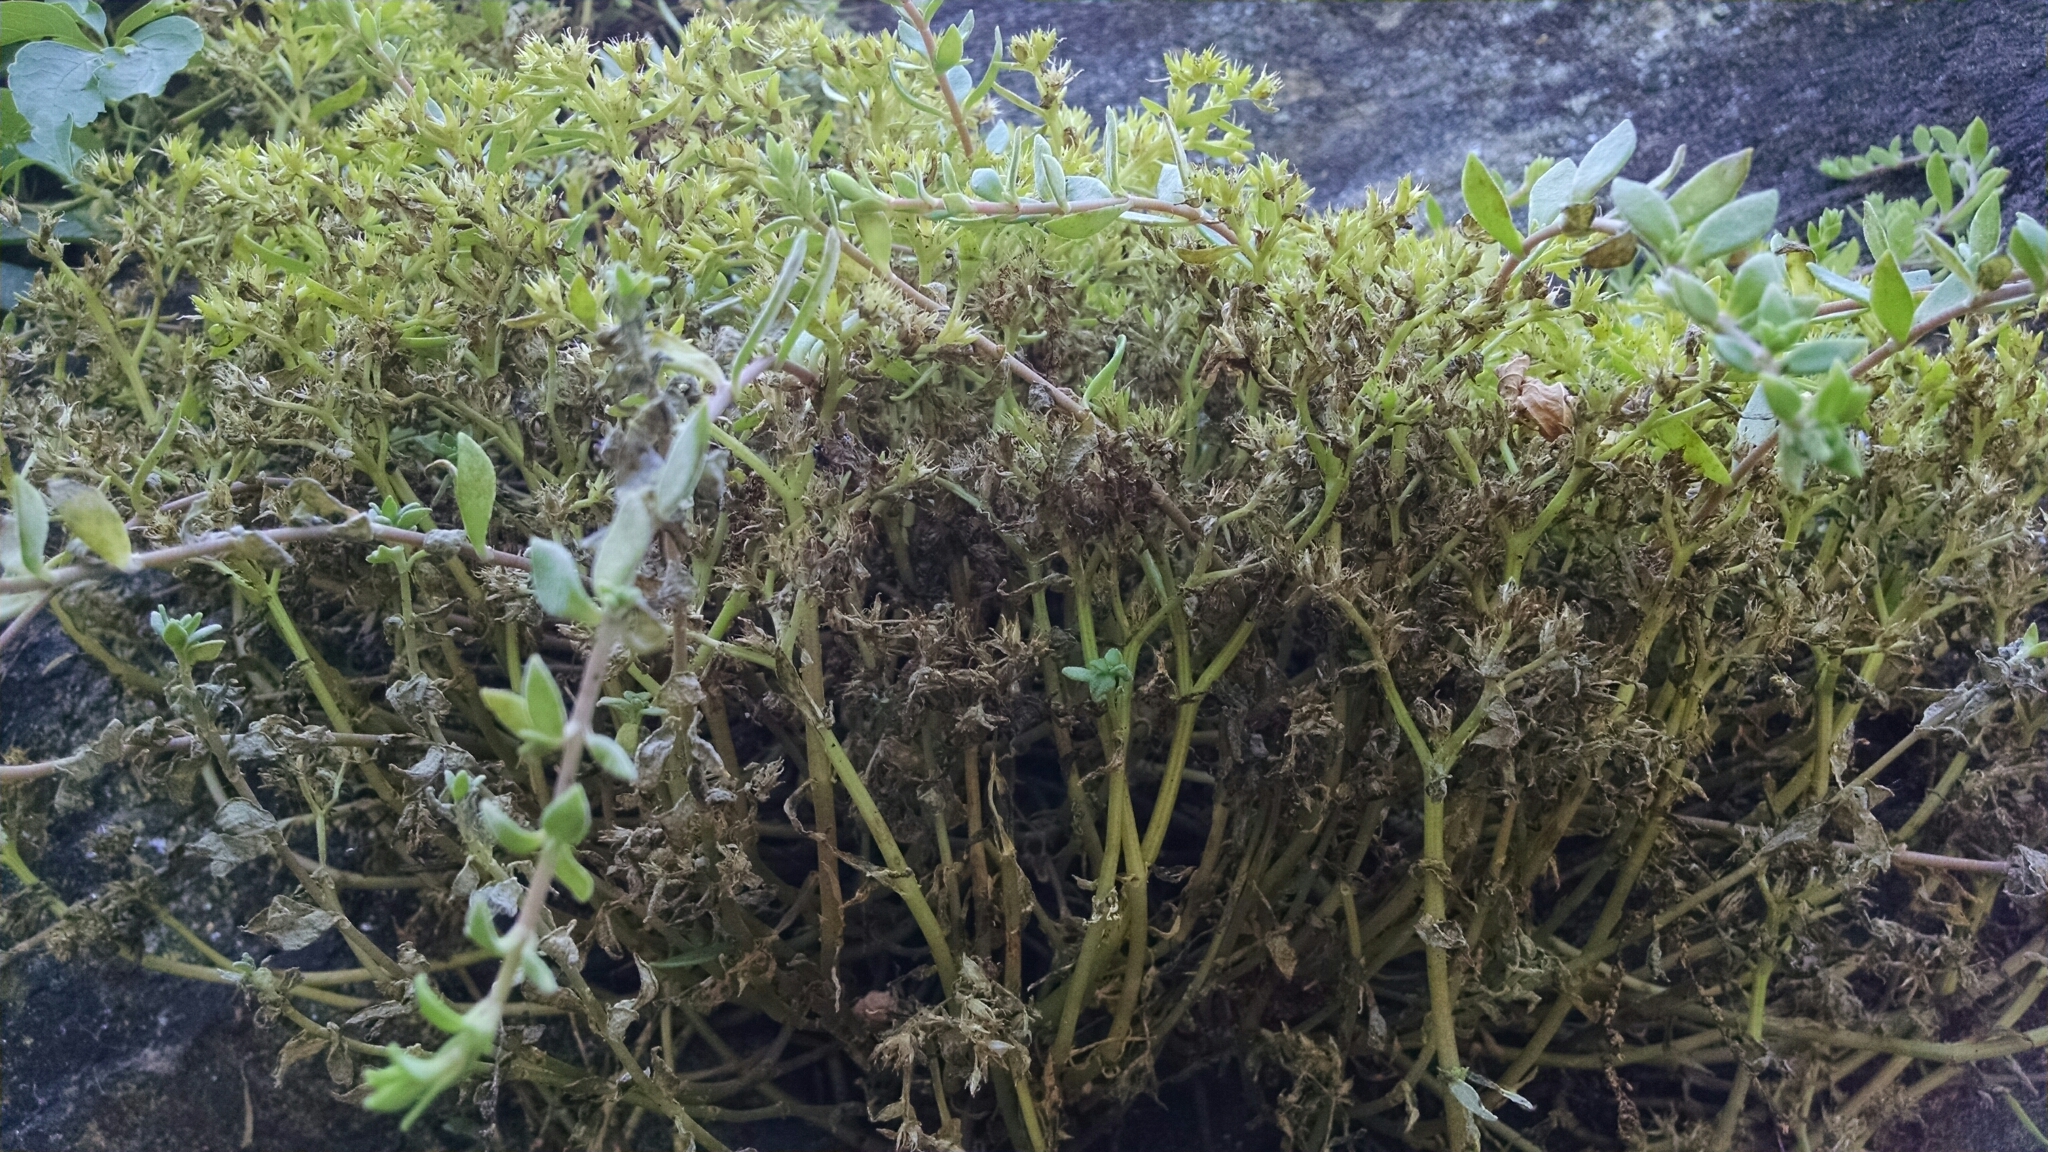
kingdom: Plantae
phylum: Tracheophyta
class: Magnoliopsida
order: Saxifragales
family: Crassulaceae
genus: Sedum
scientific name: Sedum sarmentosum
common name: Stringy stonecrop
